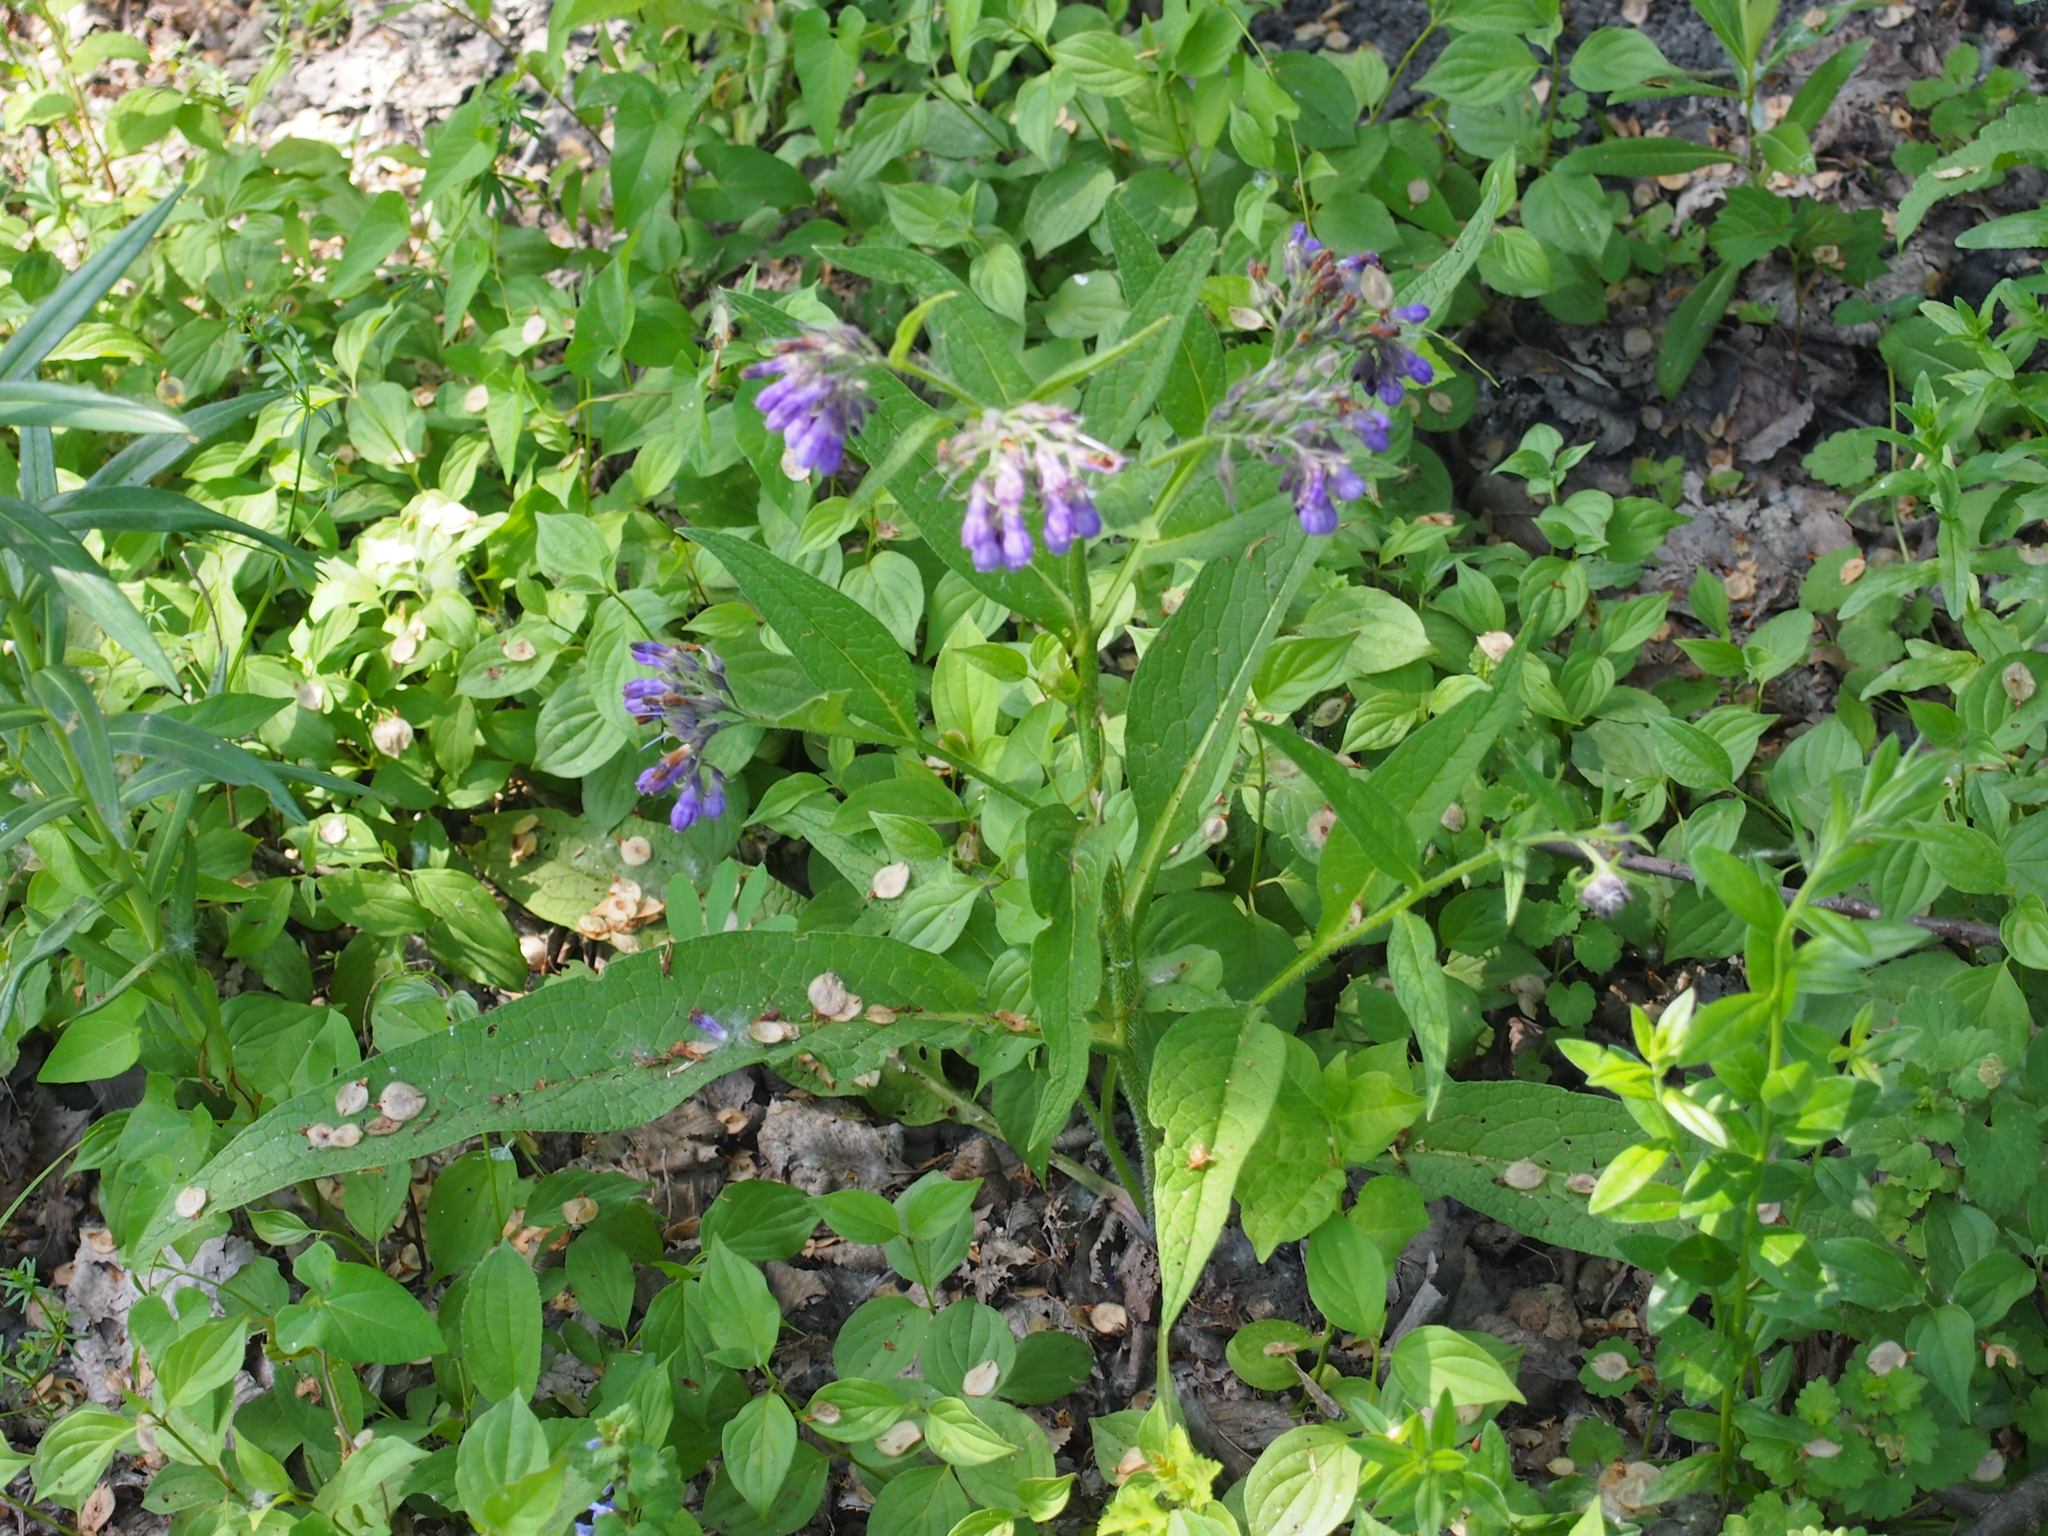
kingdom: Plantae
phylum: Tracheophyta
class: Magnoliopsida
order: Boraginales
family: Boraginaceae
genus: Symphytum
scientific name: Symphytum officinale
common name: Common comfrey
